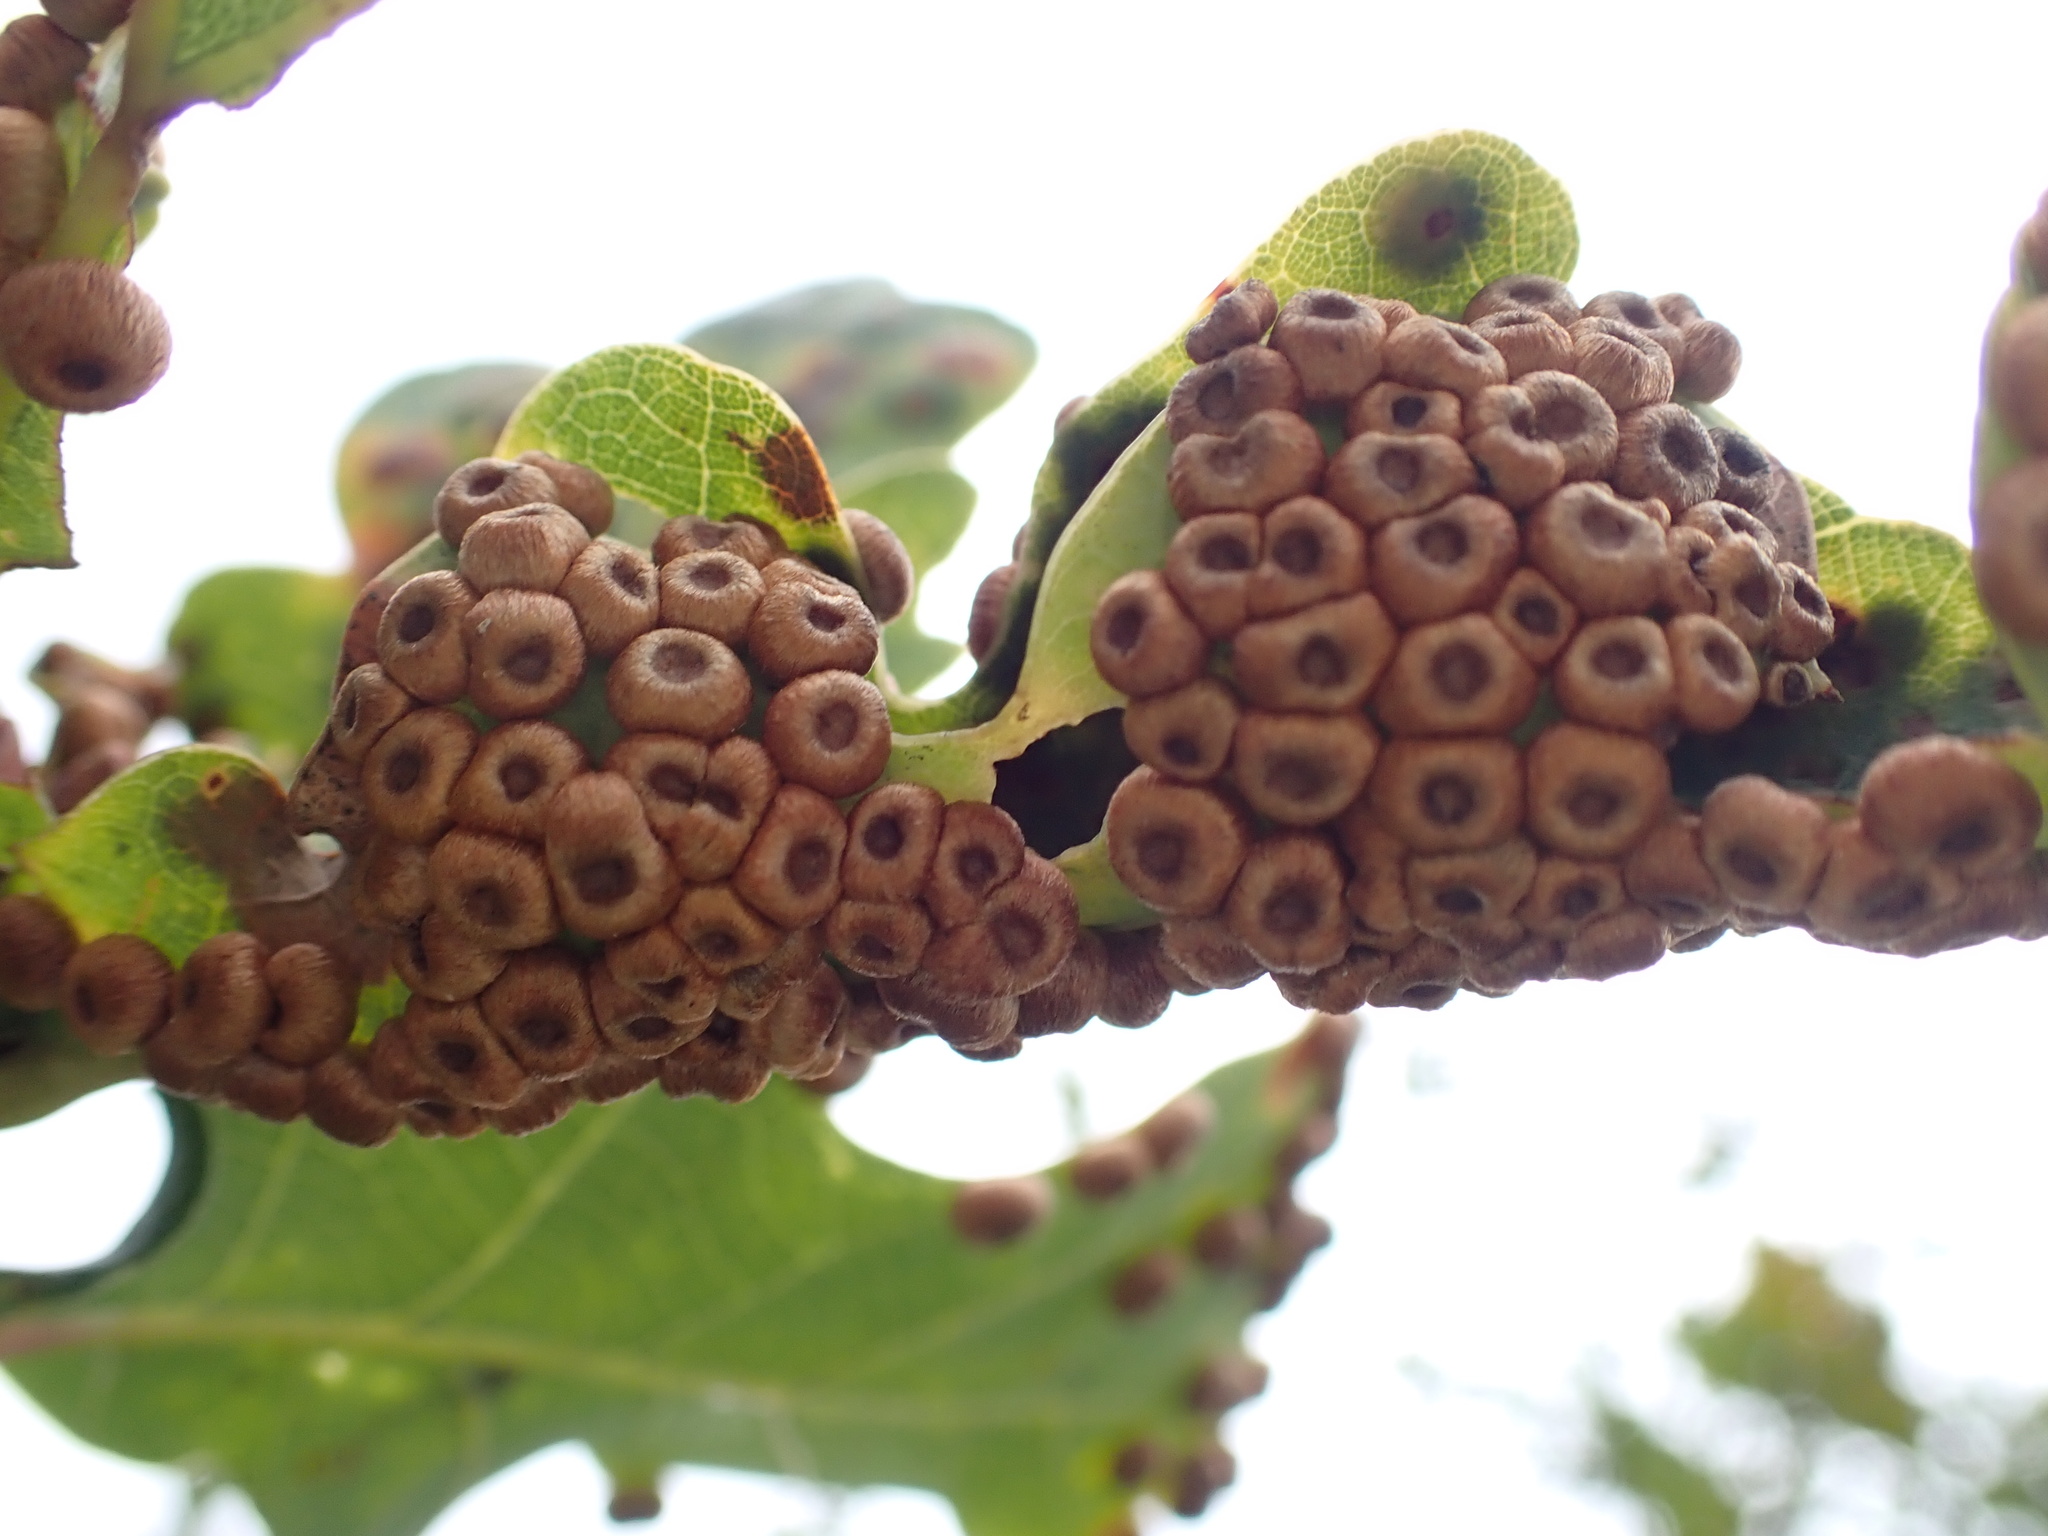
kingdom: Animalia
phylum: Arthropoda
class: Insecta
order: Hymenoptera
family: Cynipidae
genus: Neuroterus
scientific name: Neuroterus numismalis
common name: Silk-button spangle gall
